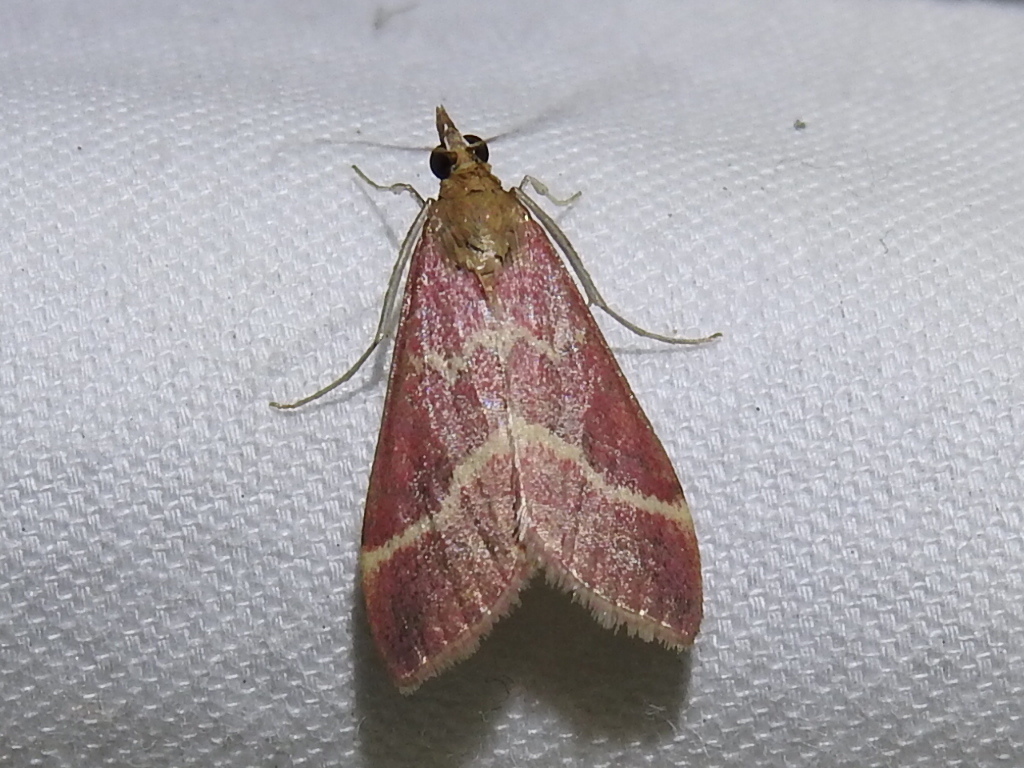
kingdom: Animalia
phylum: Arthropoda
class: Insecta
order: Lepidoptera
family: Crambidae
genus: Pyrausta
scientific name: Pyrausta volupialis
